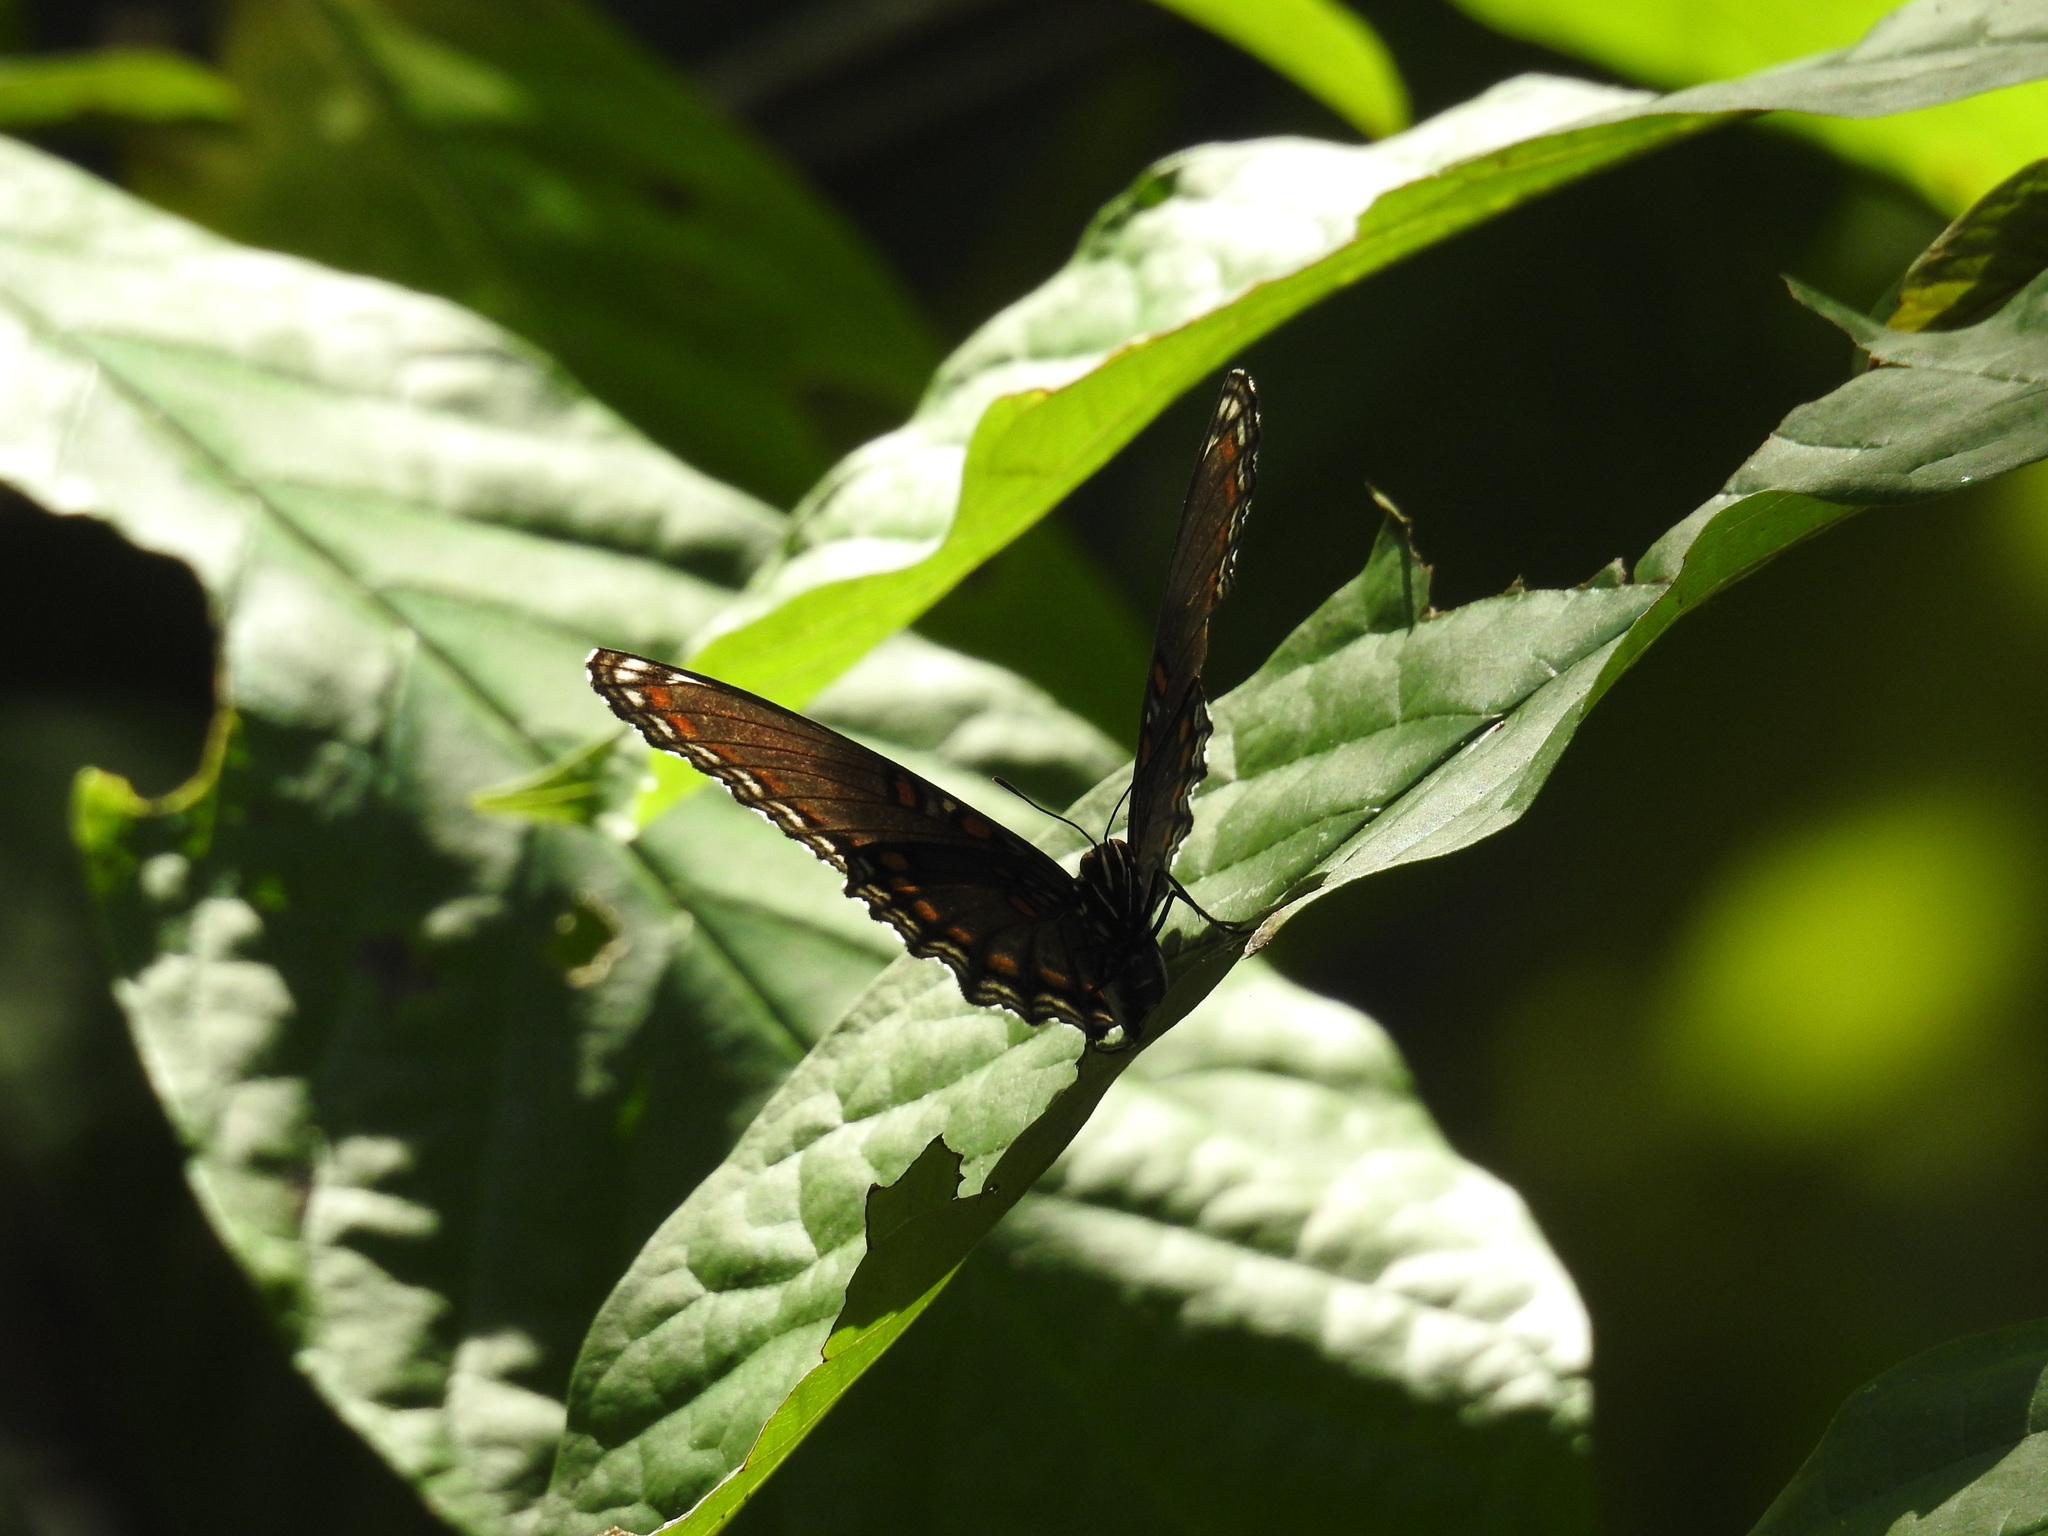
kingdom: Animalia
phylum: Arthropoda
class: Insecta
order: Lepidoptera
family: Nymphalidae
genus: Limenitis
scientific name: Limenitis arthemis
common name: Red-spotted admiral
